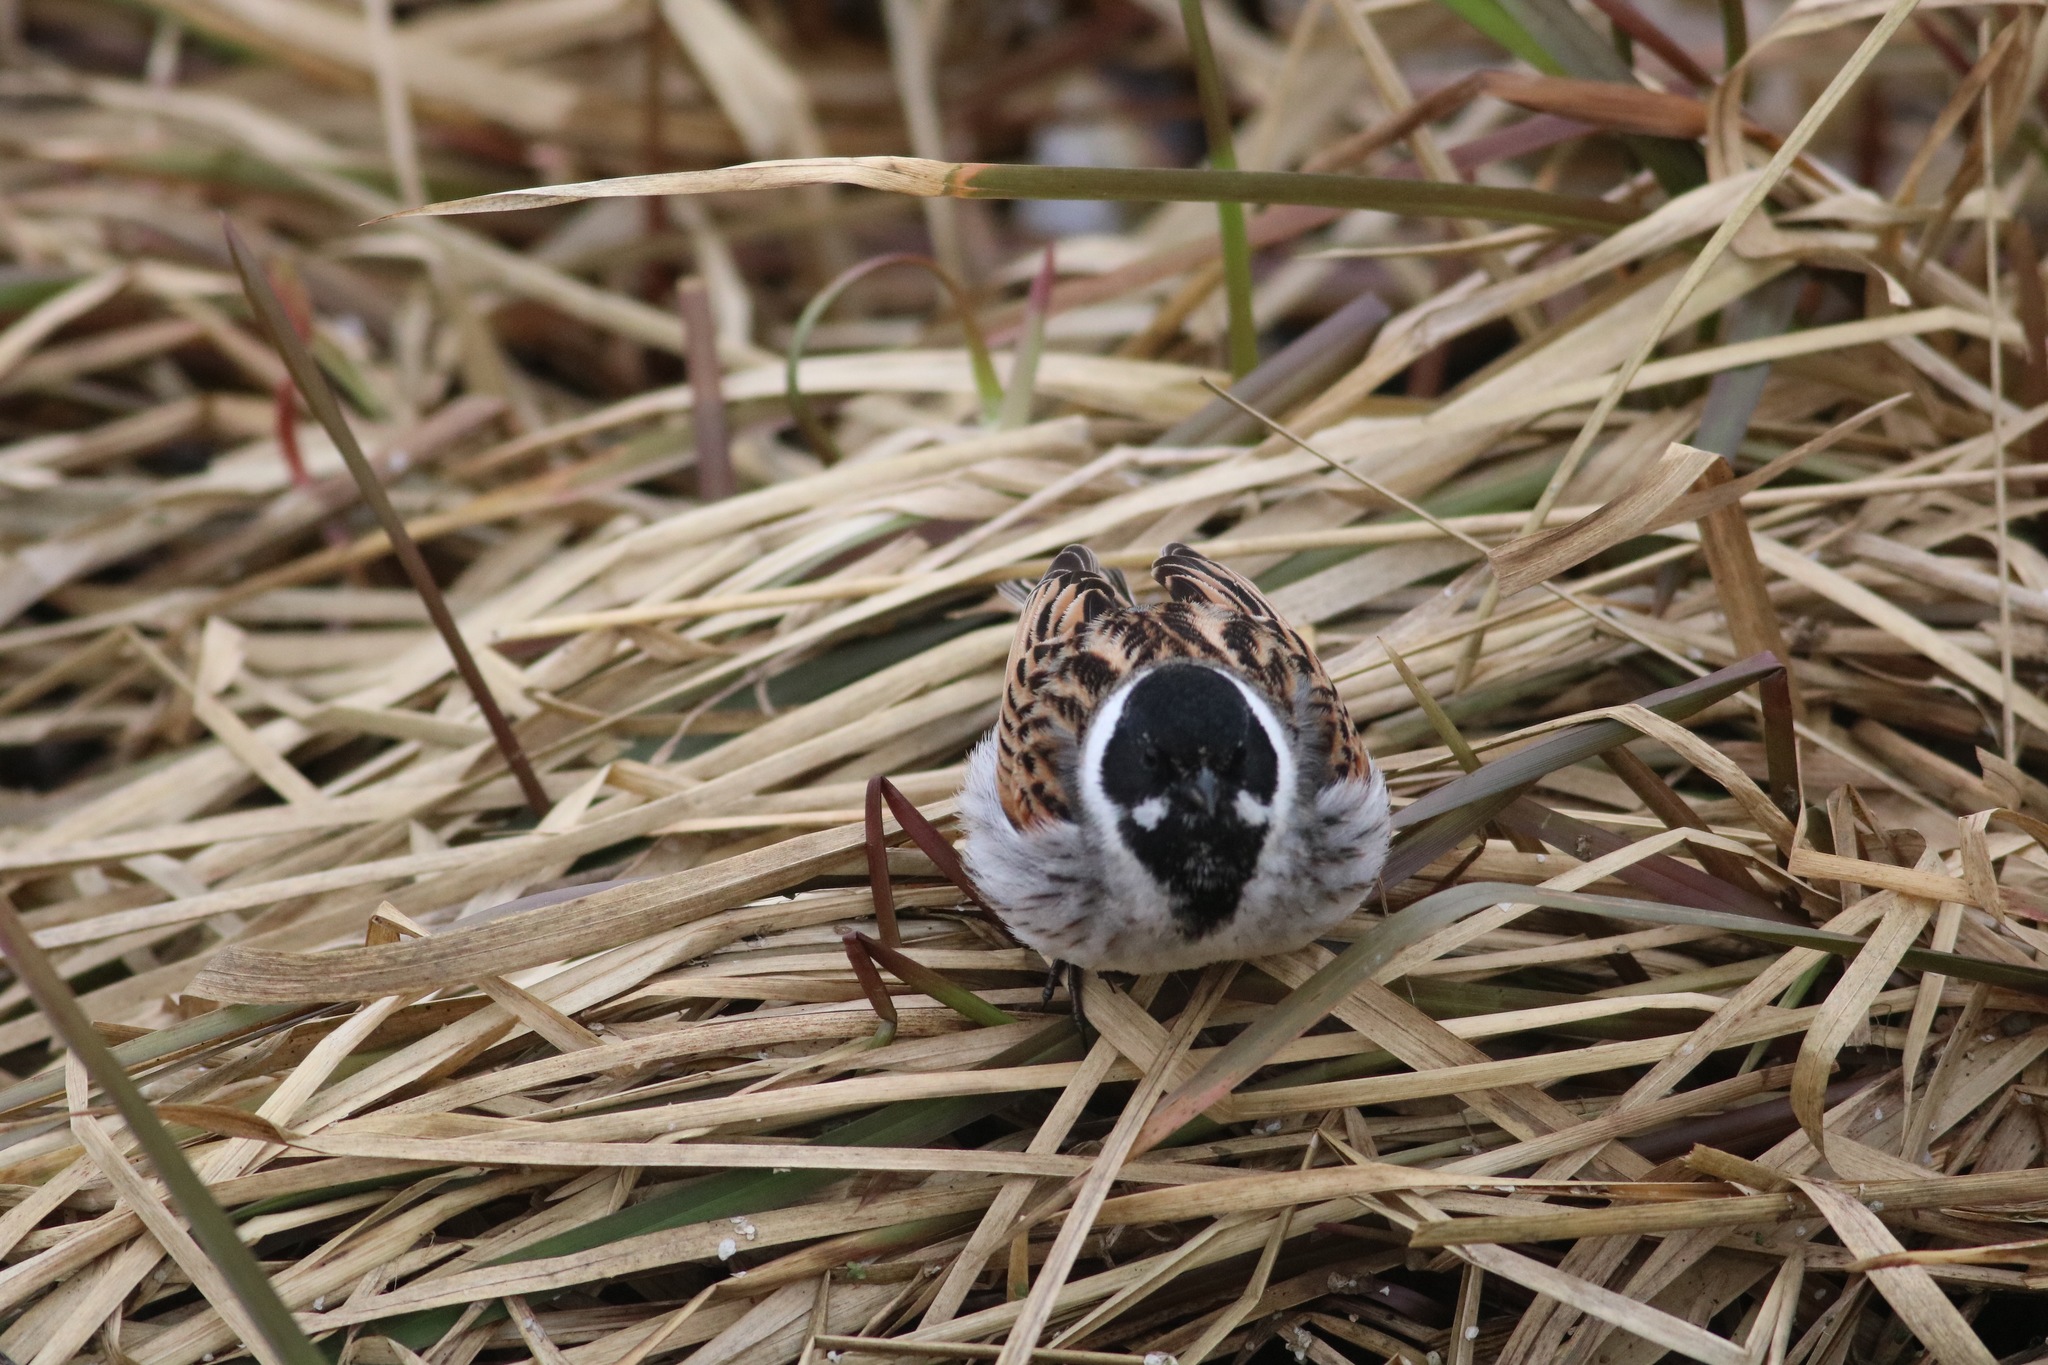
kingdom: Animalia
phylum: Chordata
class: Aves
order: Passeriformes
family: Emberizidae
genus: Emberiza
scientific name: Emberiza schoeniclus
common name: Reed bunting
